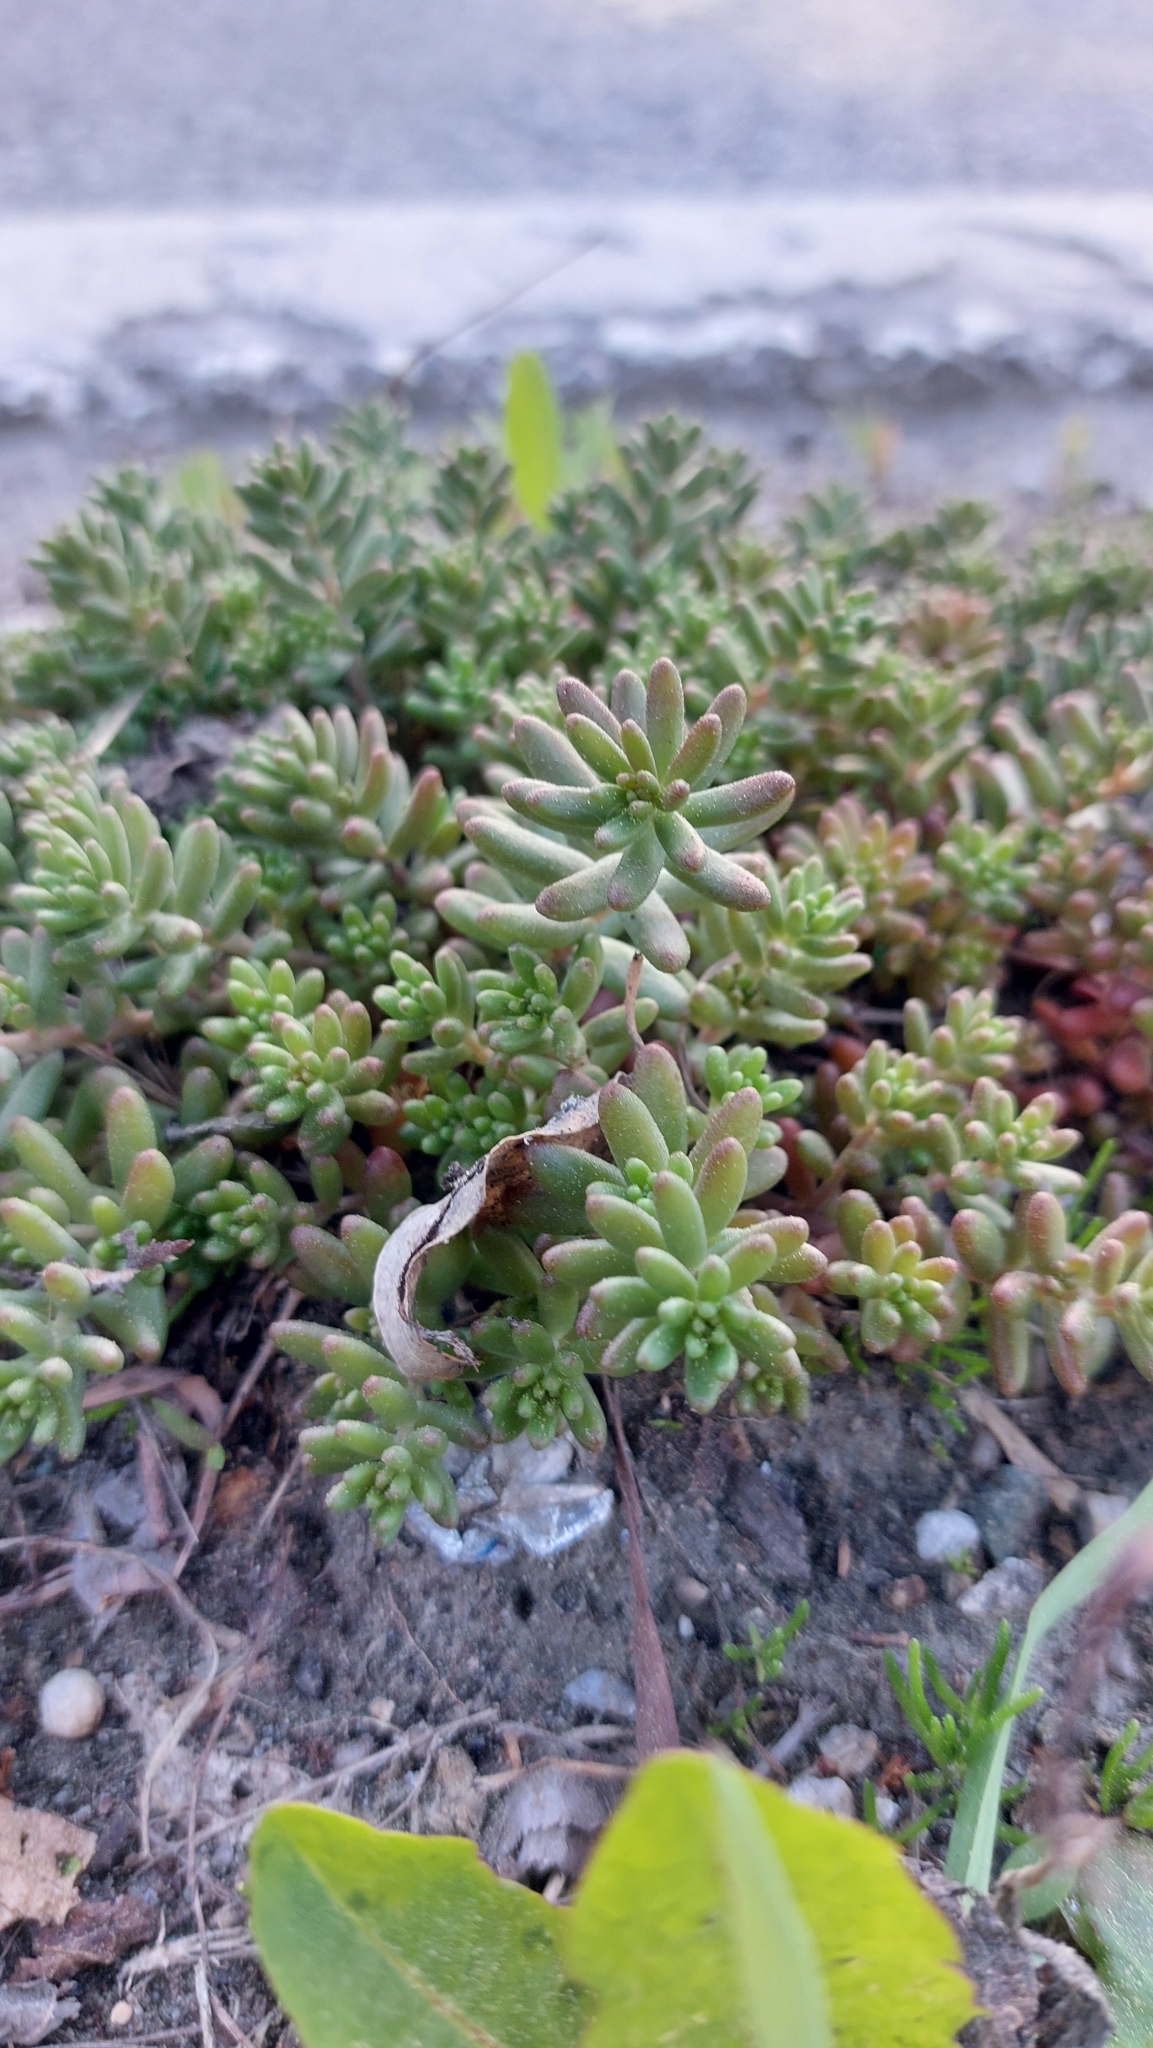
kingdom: Plantae
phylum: Tracheophyta
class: Magnoliopsida
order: Saxifragales
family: Crassulaceae
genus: Sedum
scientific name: Sedum album
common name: White stonecrop
